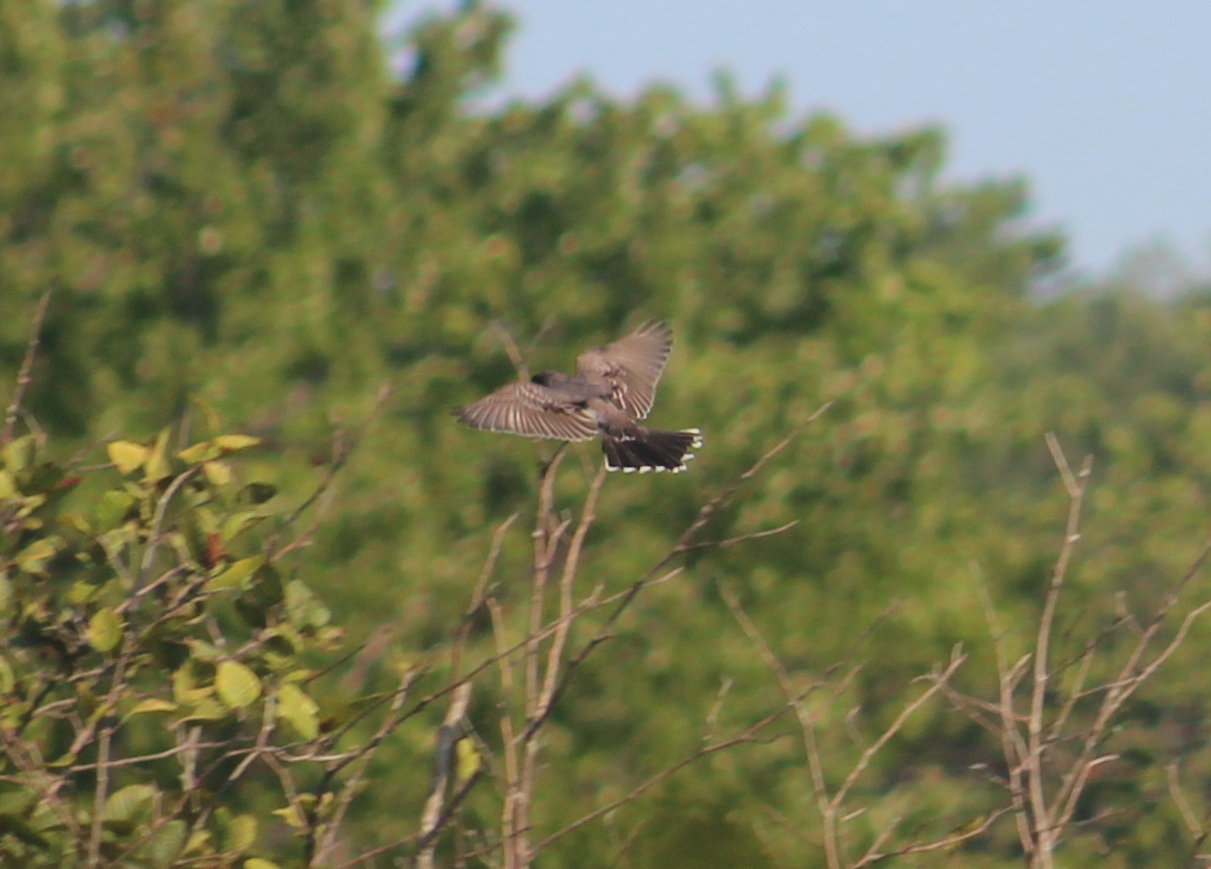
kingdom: Animalia
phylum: Chordata
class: Aves
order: Passeriformes
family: Tyrannidae
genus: Tyrannus
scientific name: Tyrannus tyrannus
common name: Eastern kingbird
